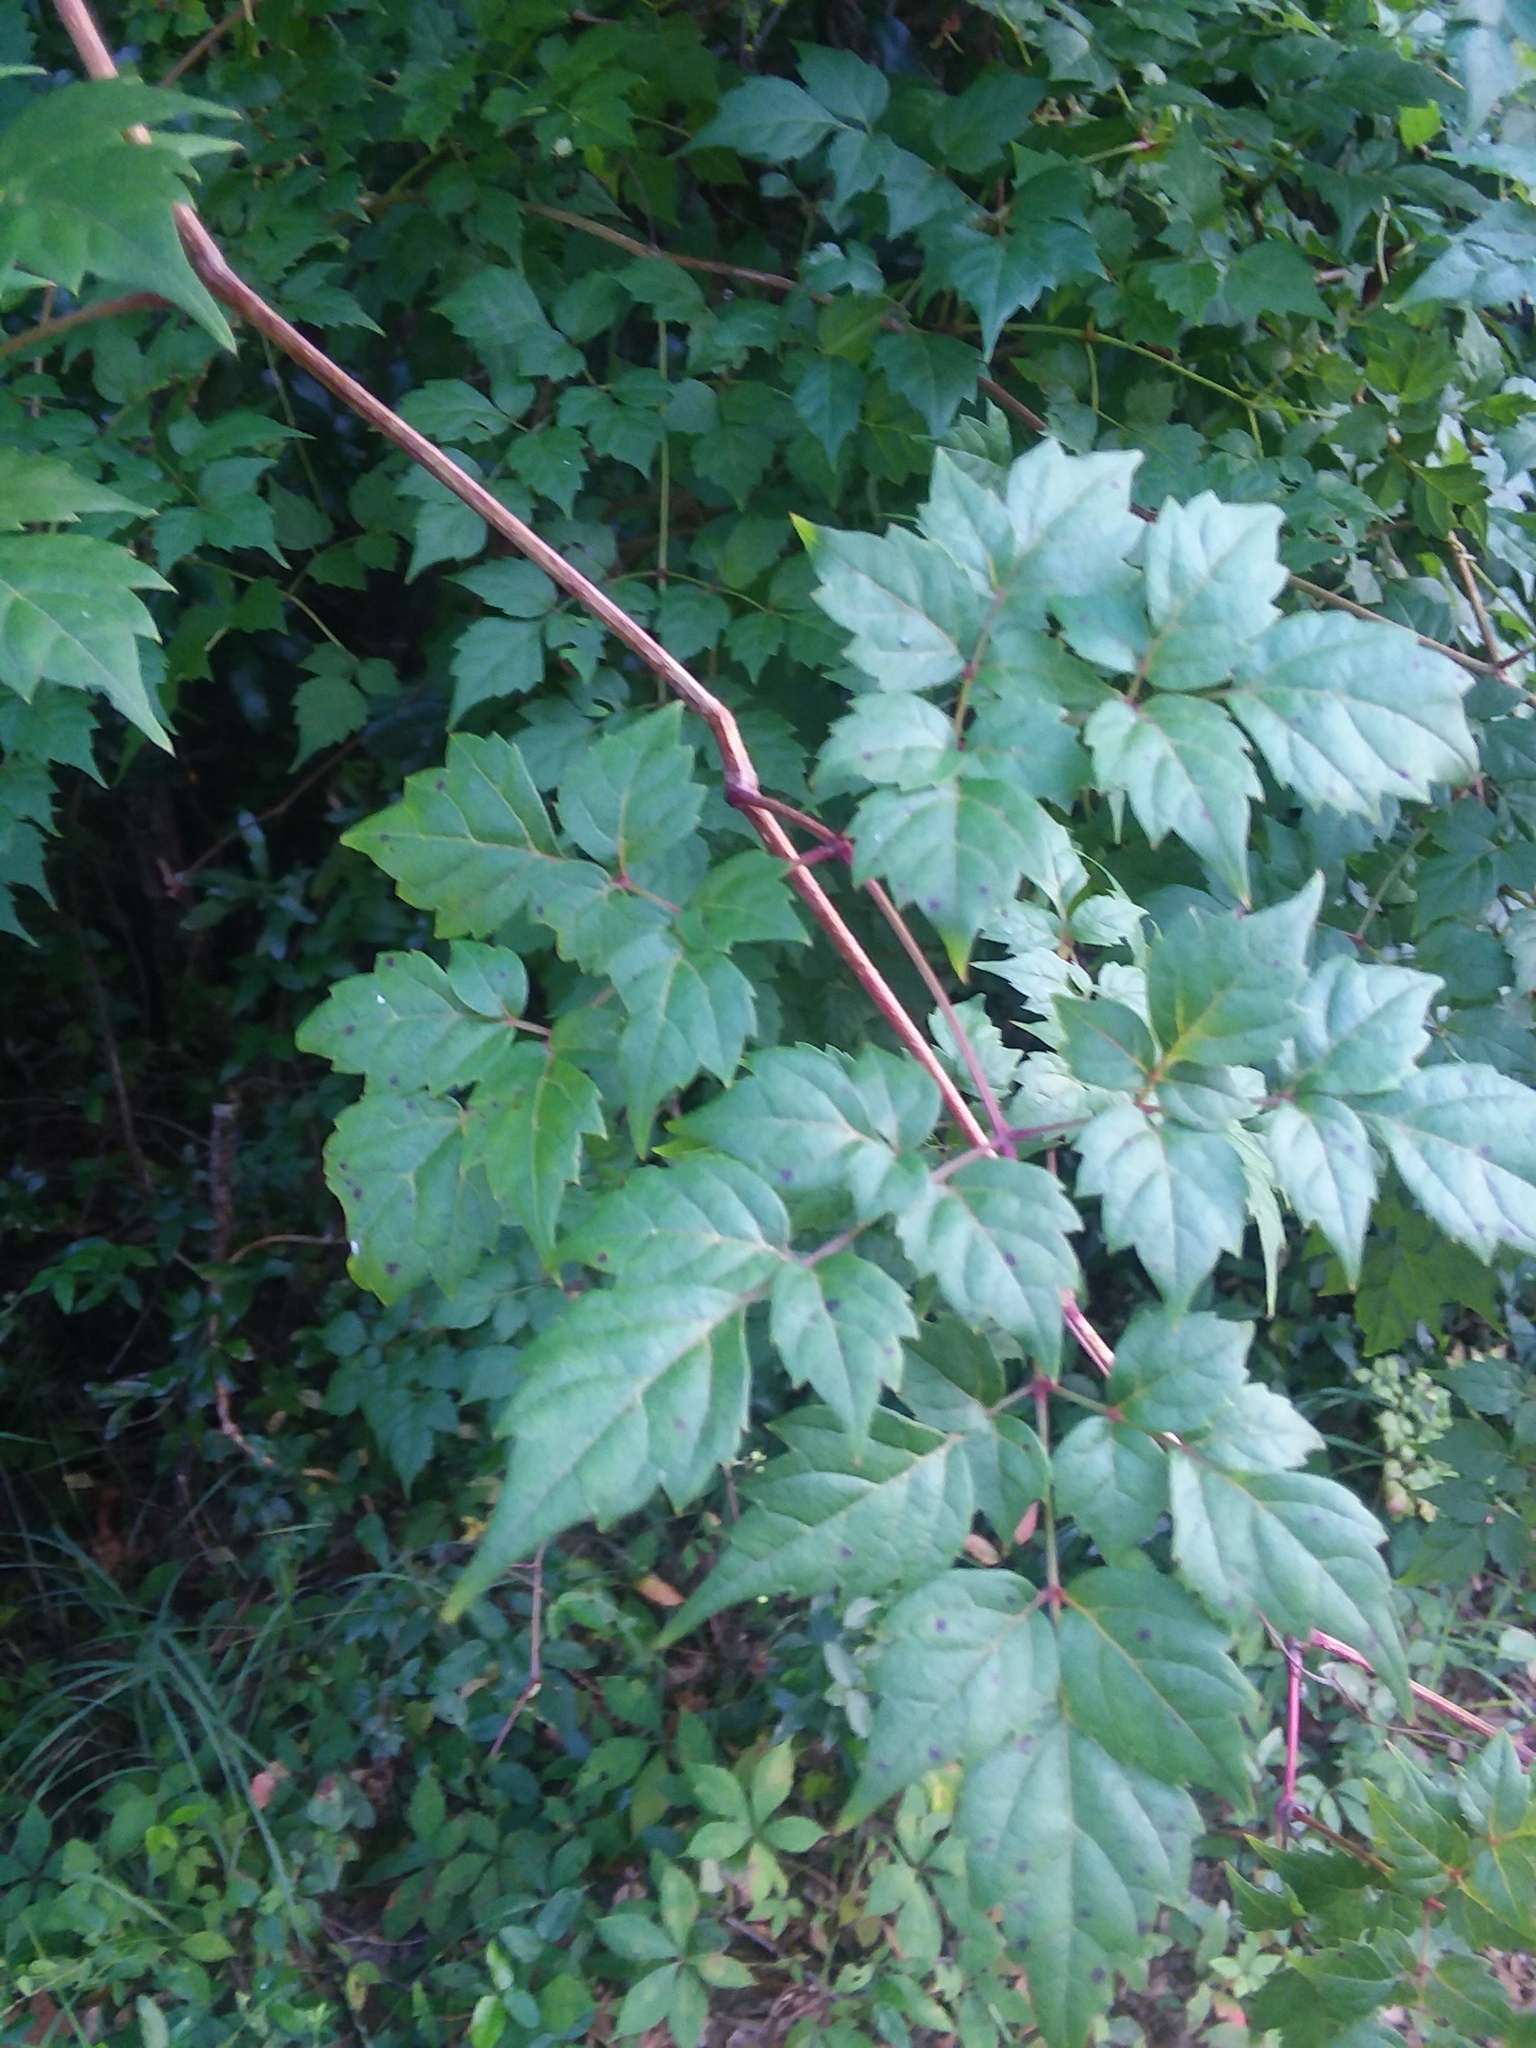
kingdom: Plantae
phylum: Tracheophyta
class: Magnoliopsida
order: Vitales
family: Vitaceae
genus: Nekemias
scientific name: Nekemias arborea
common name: Peppervine
